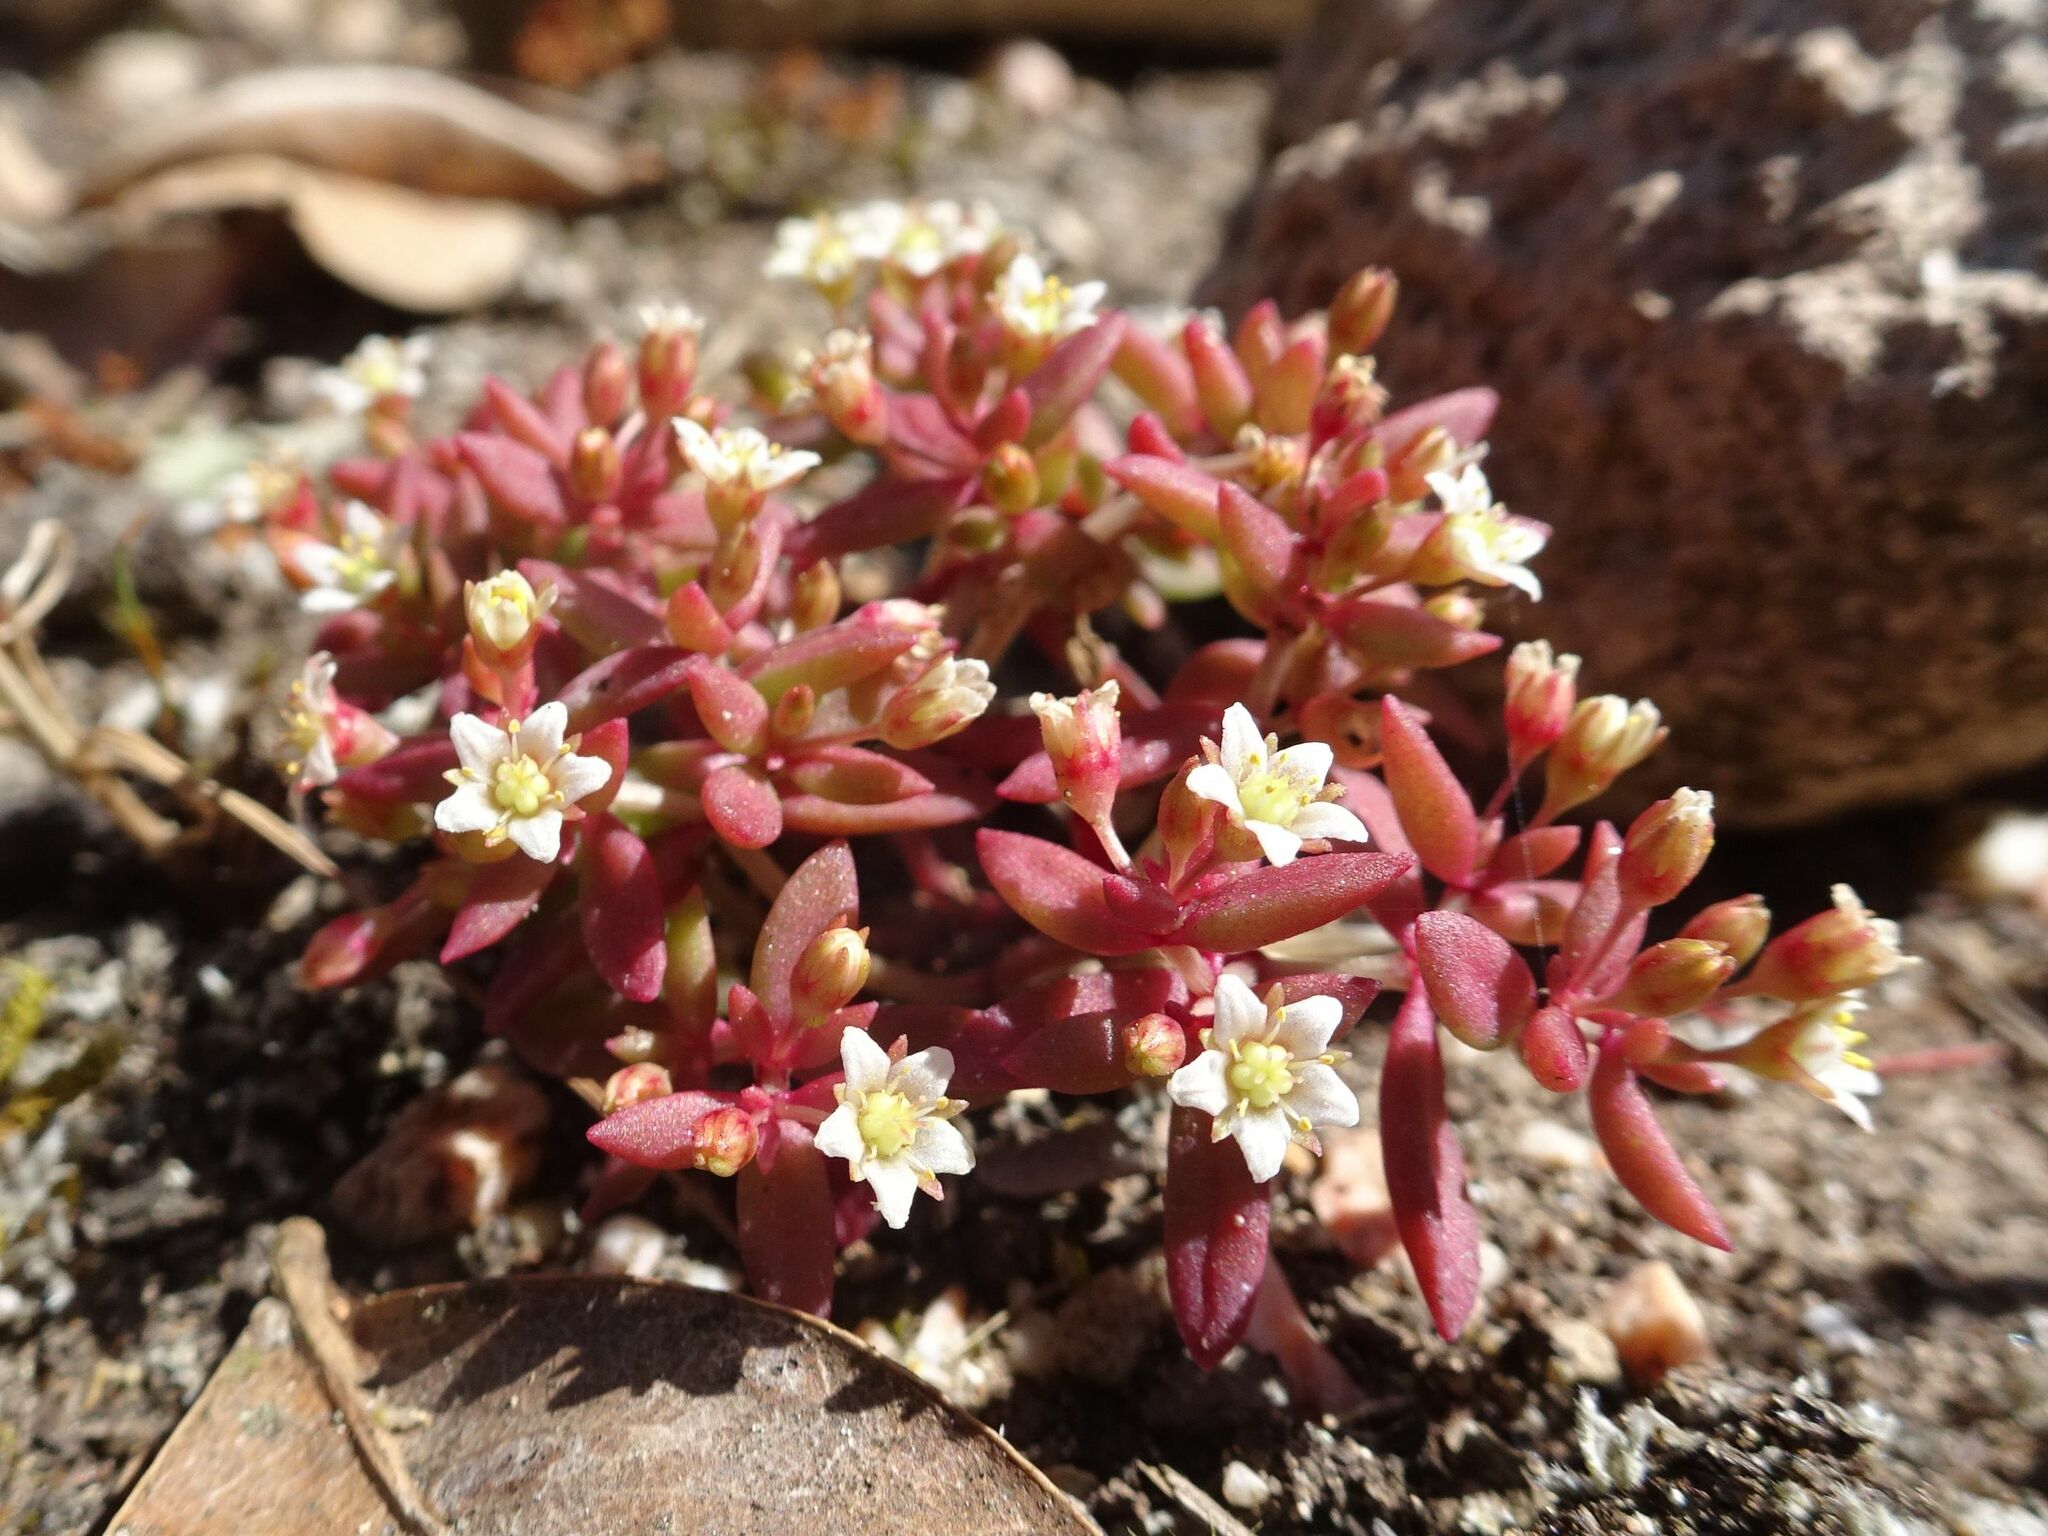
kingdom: Plantae
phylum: Tracheophyta
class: Magnoliopsida
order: Saxifragales
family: Crassulaceae
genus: Crassula
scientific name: Crassula expansa
